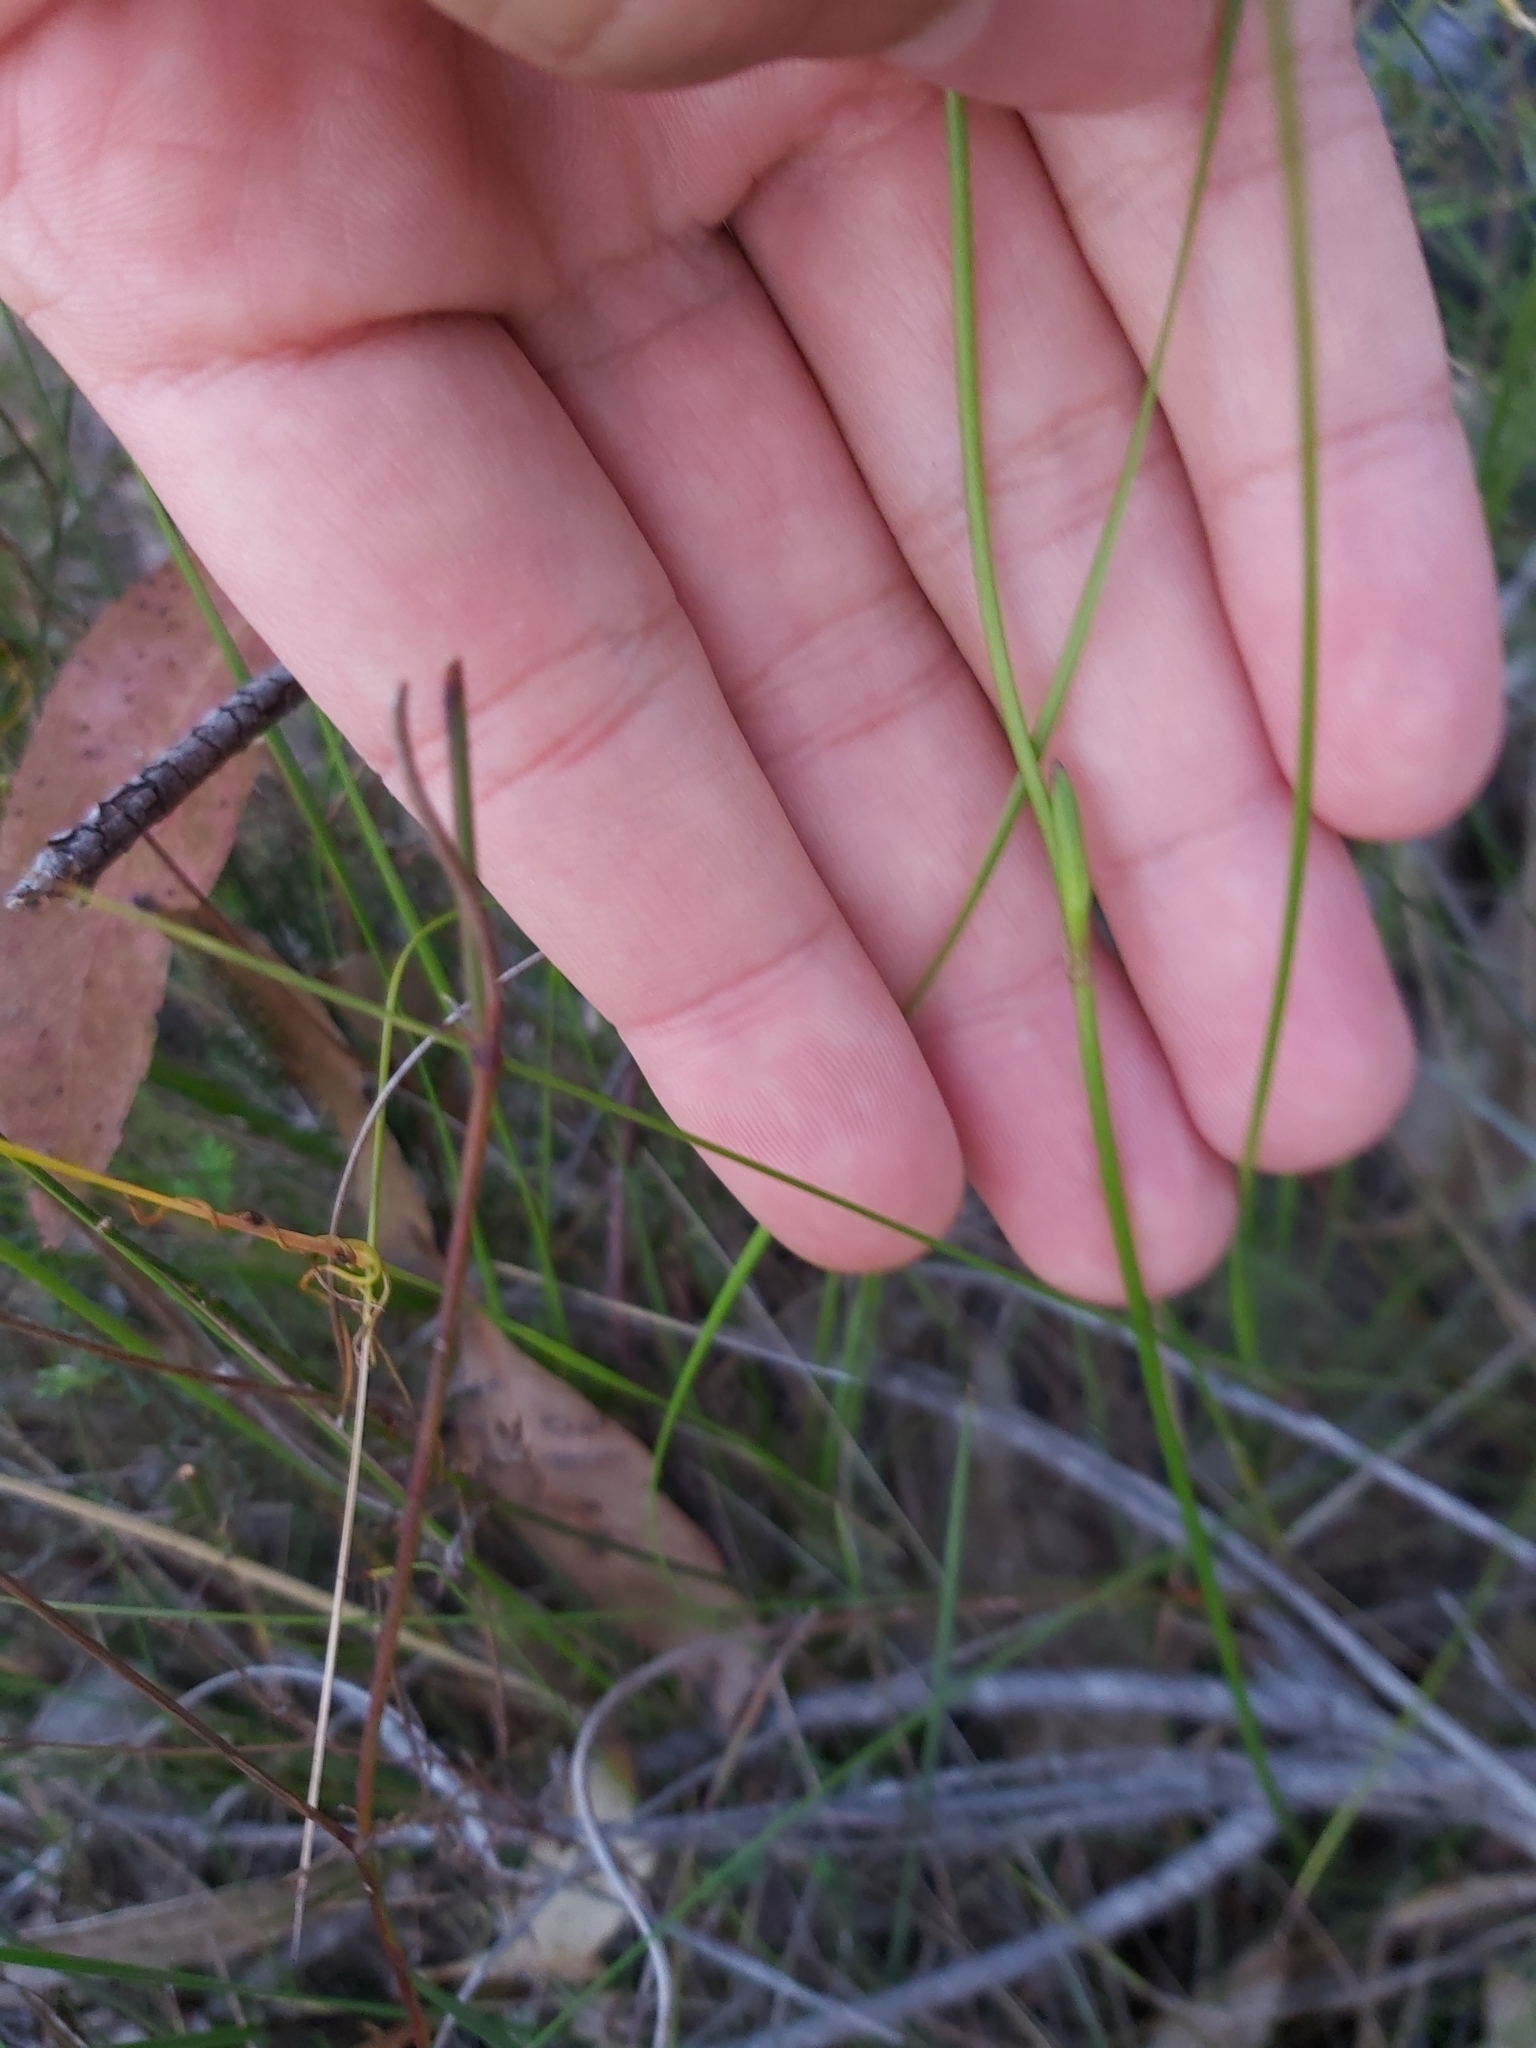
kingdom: Plantae
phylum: Tracheophyta
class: Liliopsida
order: Liliales
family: Colchicaceae
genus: Burchardia
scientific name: Burchardia umbellata
